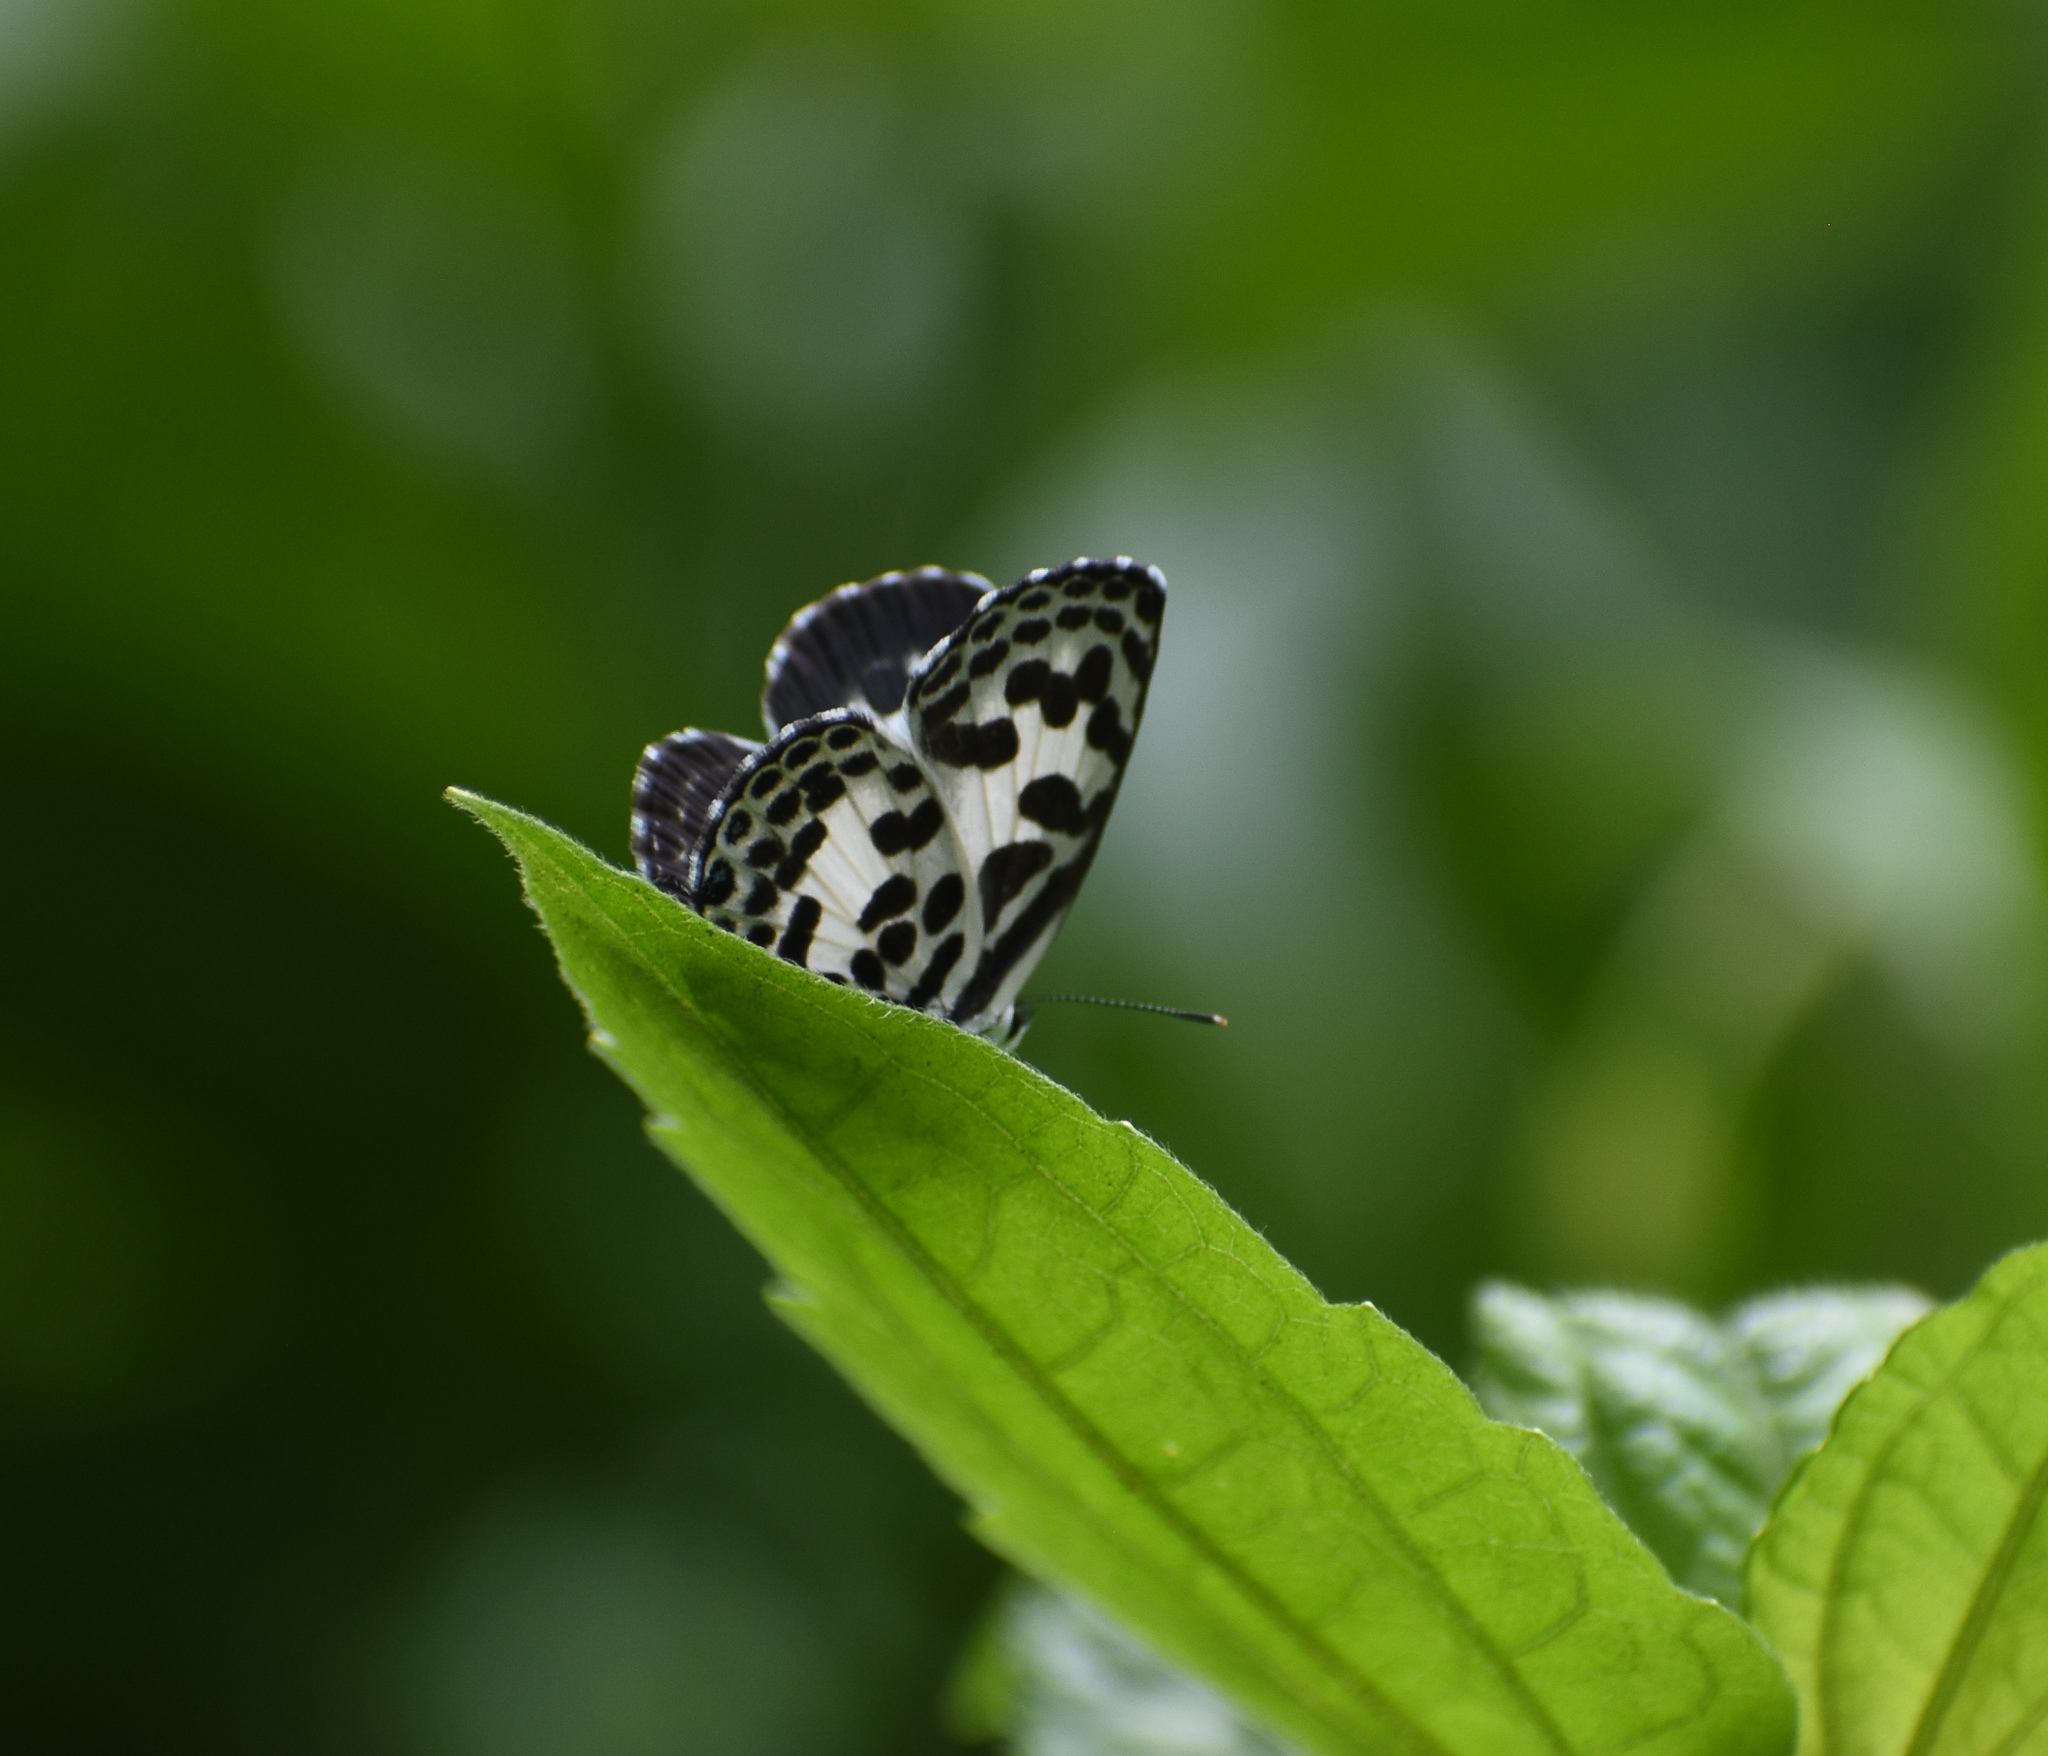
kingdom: Animalia
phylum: Arthropoda
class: Insecta
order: Lepidoptera
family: Lycaenidae
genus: Castalius
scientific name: Castalius rosimon
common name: Common pierrot
